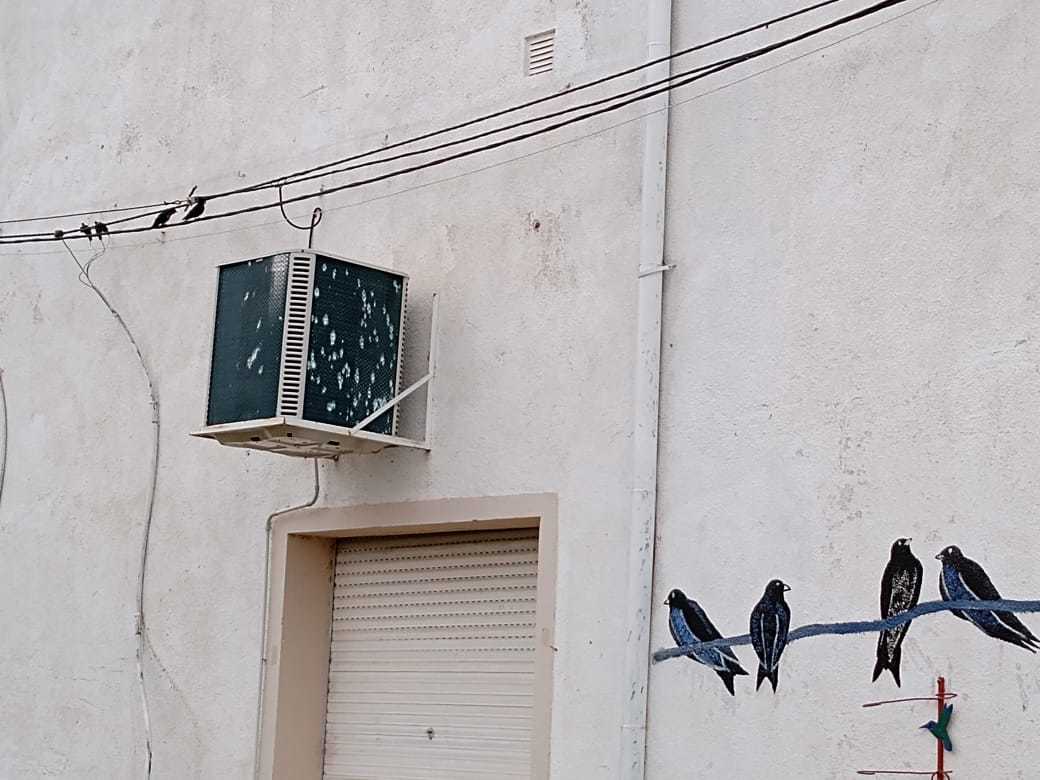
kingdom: Animalia
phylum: Chordata
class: Aves
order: Passeriformes
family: Hirundinidae
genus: Progne
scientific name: Progne elegans
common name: Southern martin
